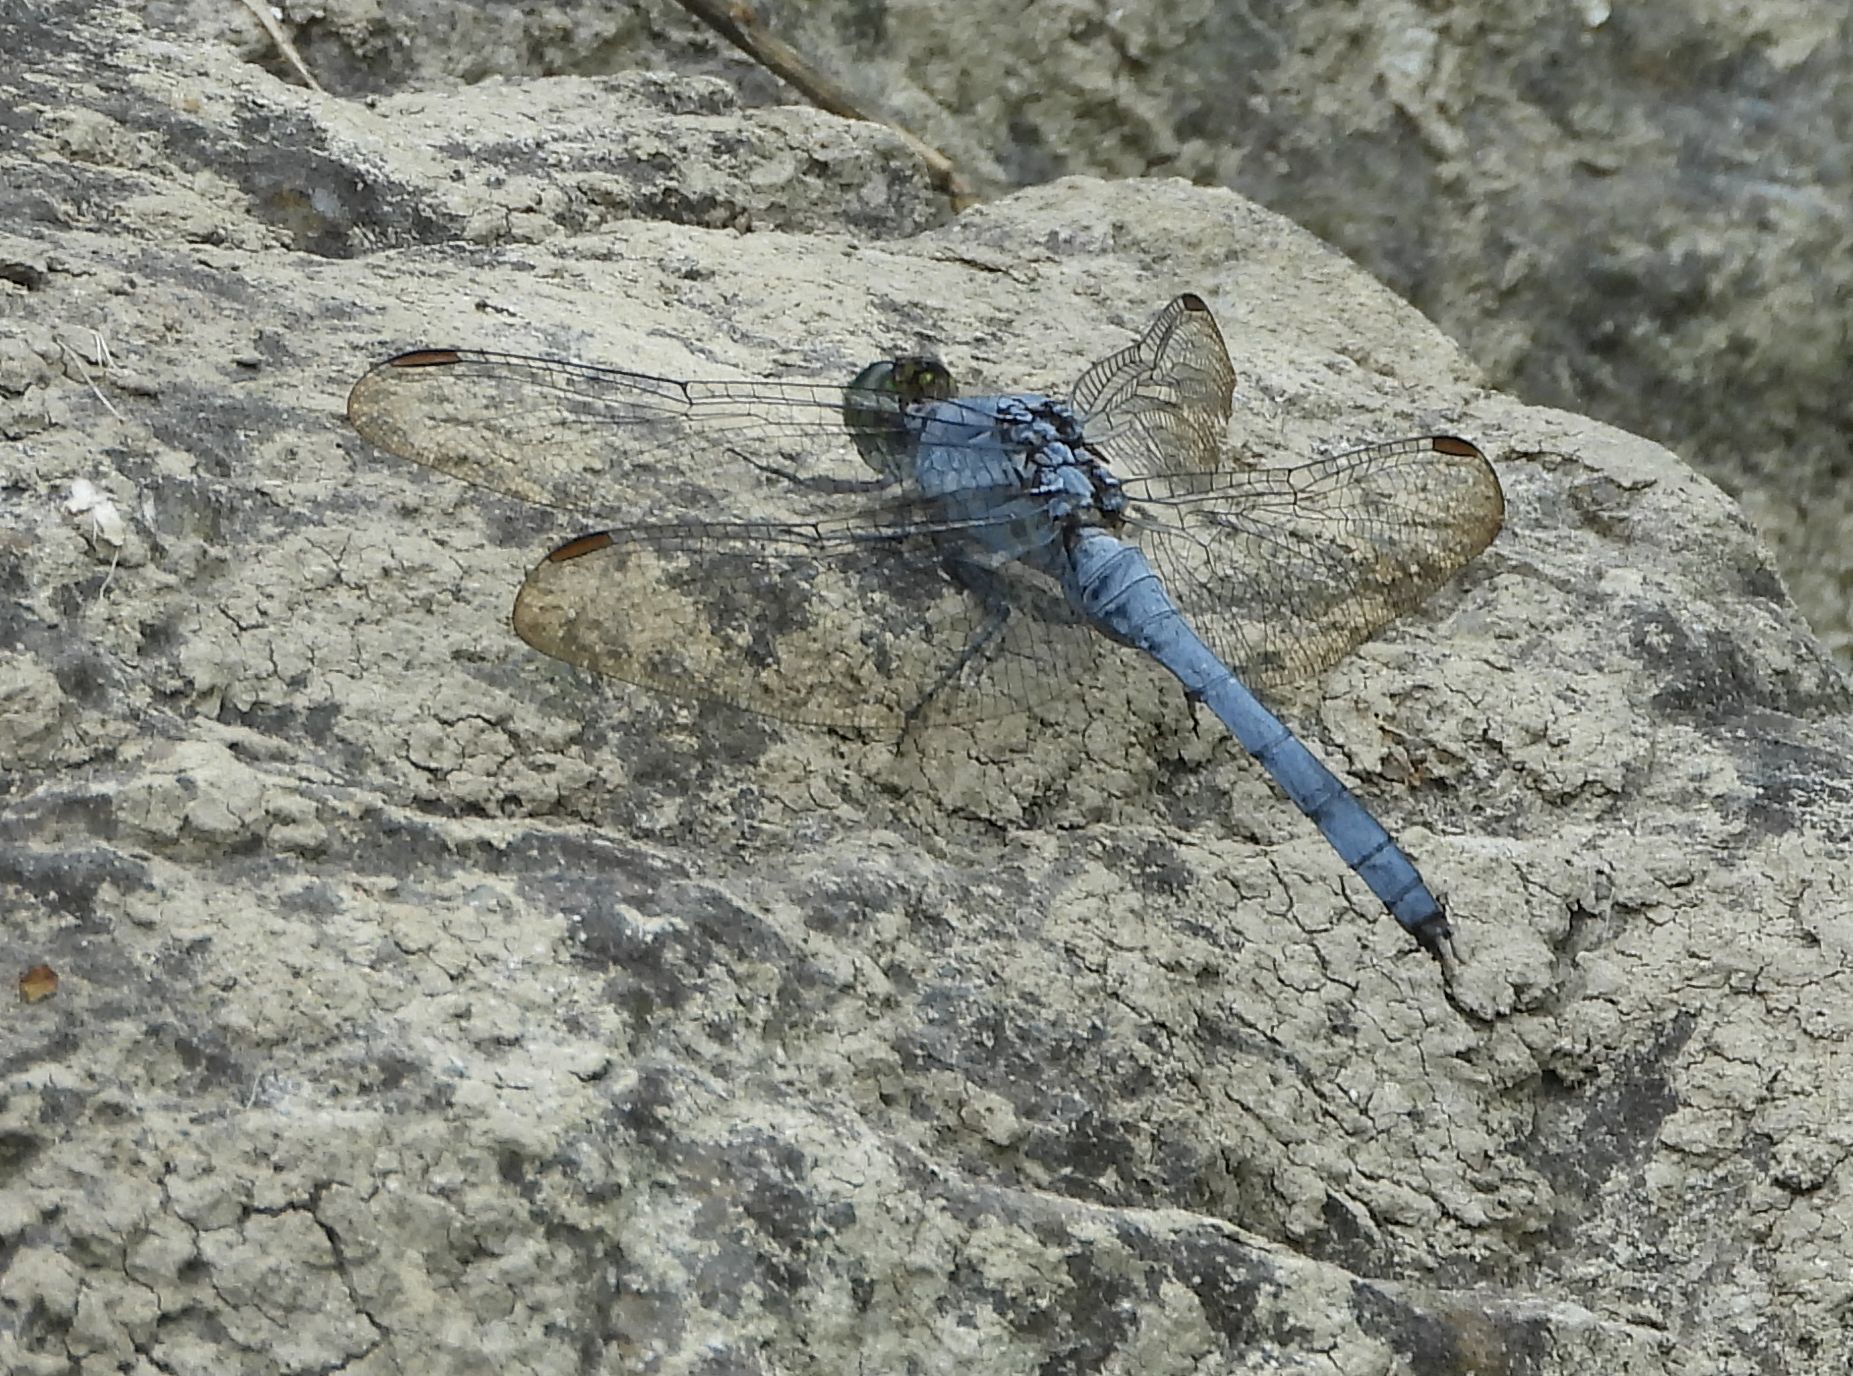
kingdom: Animalia
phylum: Arthropoda
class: Insecta
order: Odonata
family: Libellulidae
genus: Erythemis
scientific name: Erythemis simplicicollis
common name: Eastern pondhawk
